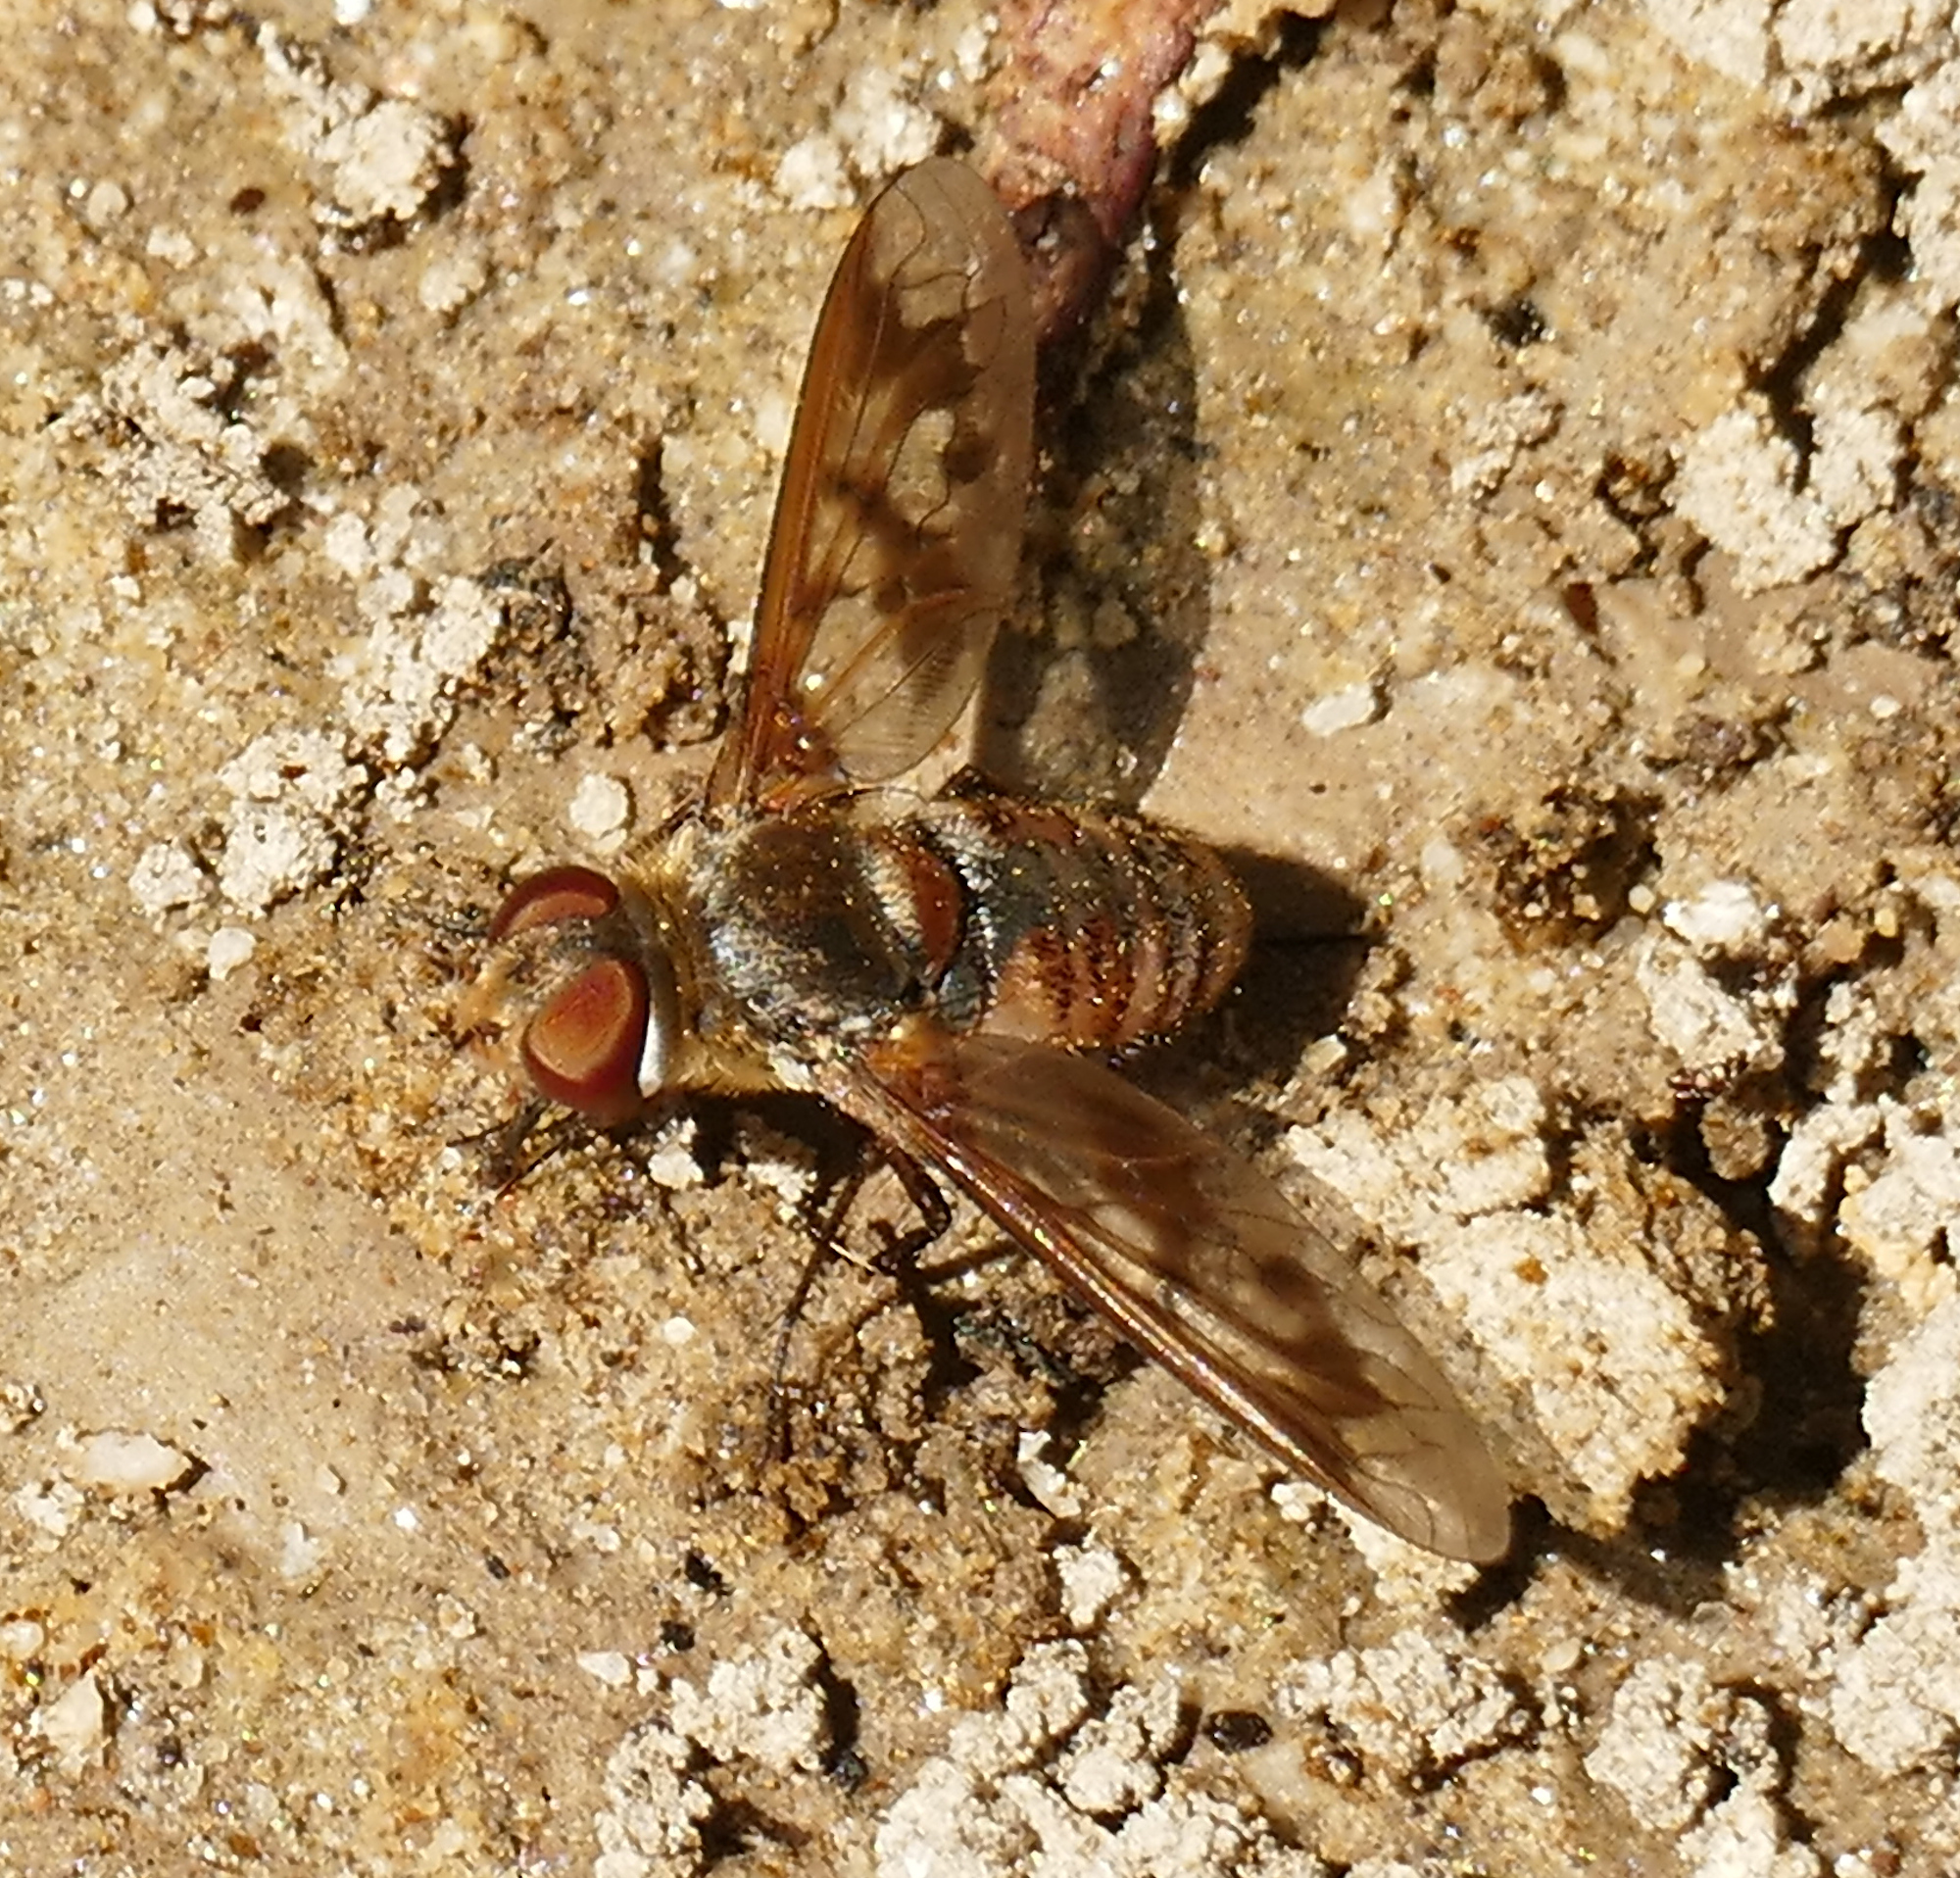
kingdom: Animalia
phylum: Arthropoda
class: Insecta
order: Diptera
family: Bombyliidae
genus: Exoprosopa
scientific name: Exoprosopa butleri
